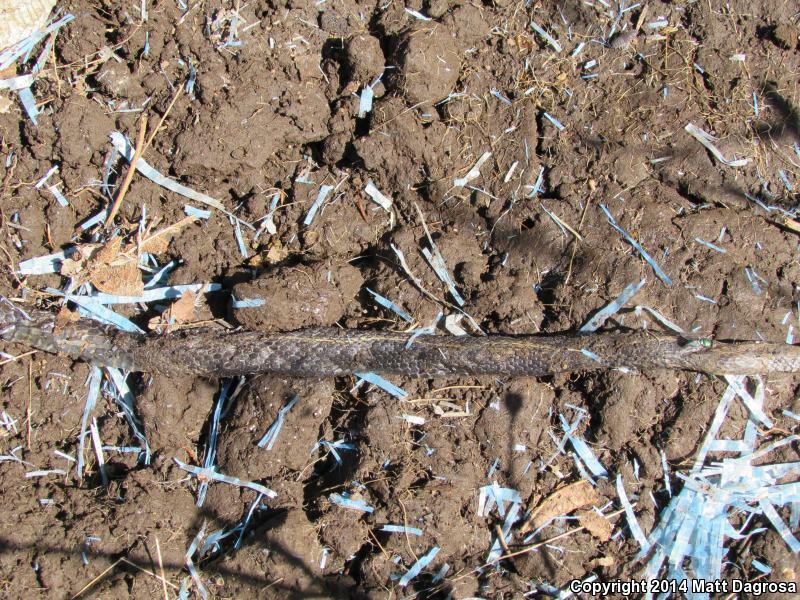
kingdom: Animalia
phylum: Chordata
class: Squamata
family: Colubridae
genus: Thamnophis
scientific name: Thamnophis ordinoides
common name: Northwestern garter snake
